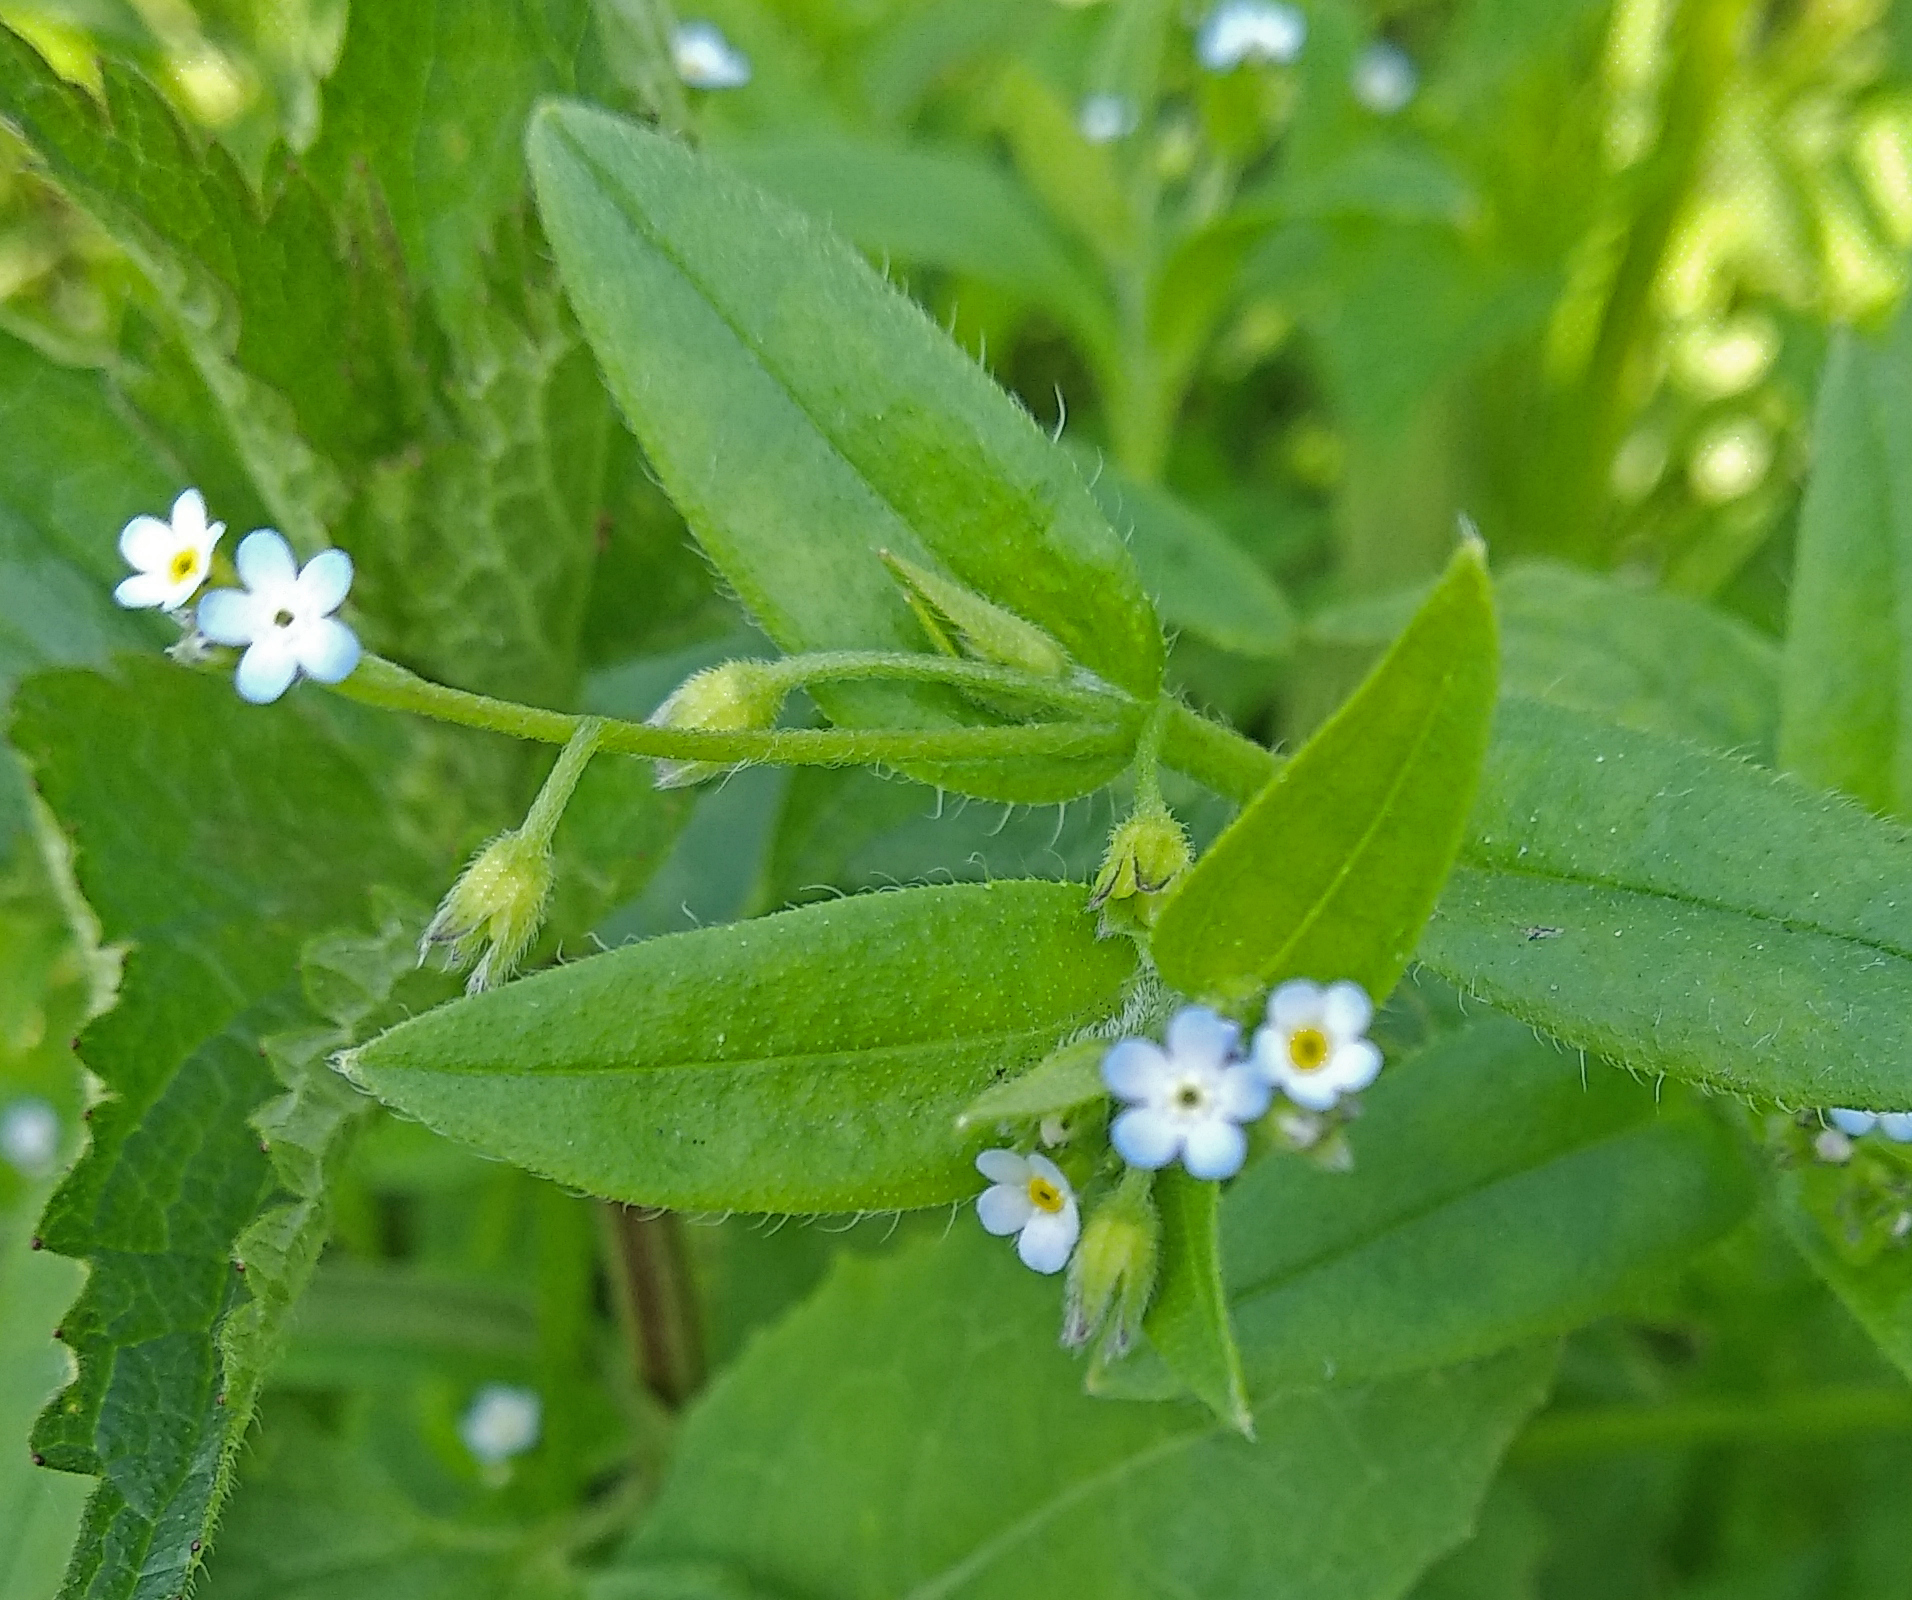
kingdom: Plantae
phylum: Tracheophyta
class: Magnoliopsida
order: Boraginales
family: Boraginaceae
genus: Myosotis
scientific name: Myosotis sparsiflora
